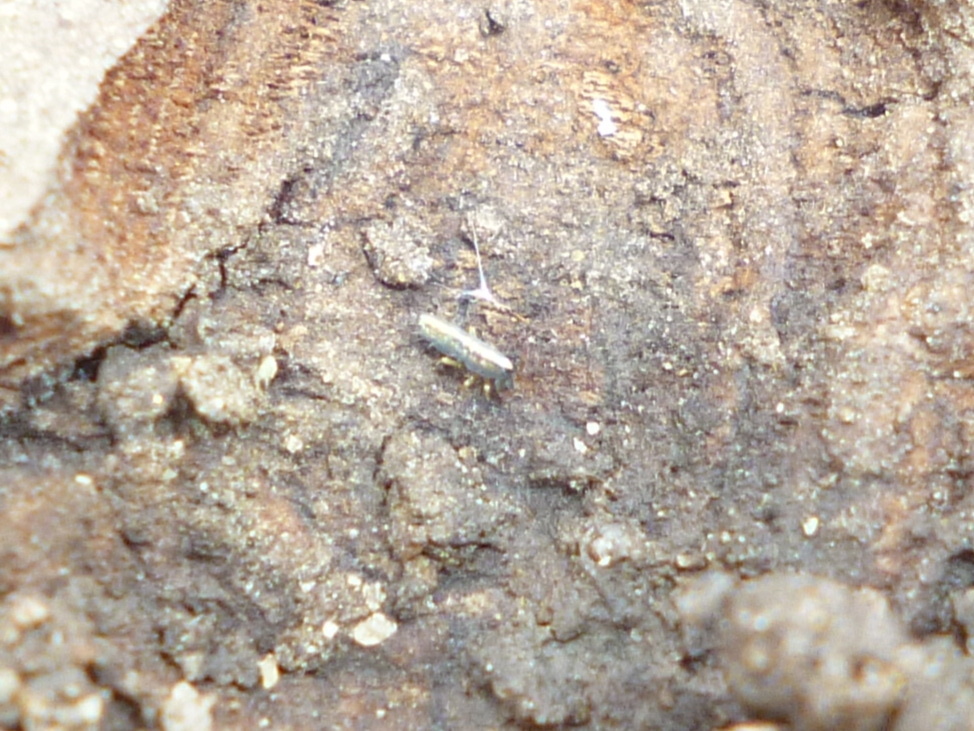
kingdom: Animalia
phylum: Arthropoda
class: Collembola
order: Entomobryomorpha
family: Entomobryidae
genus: Lepidocyrtus
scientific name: Lepidocyrtus paradoxus
